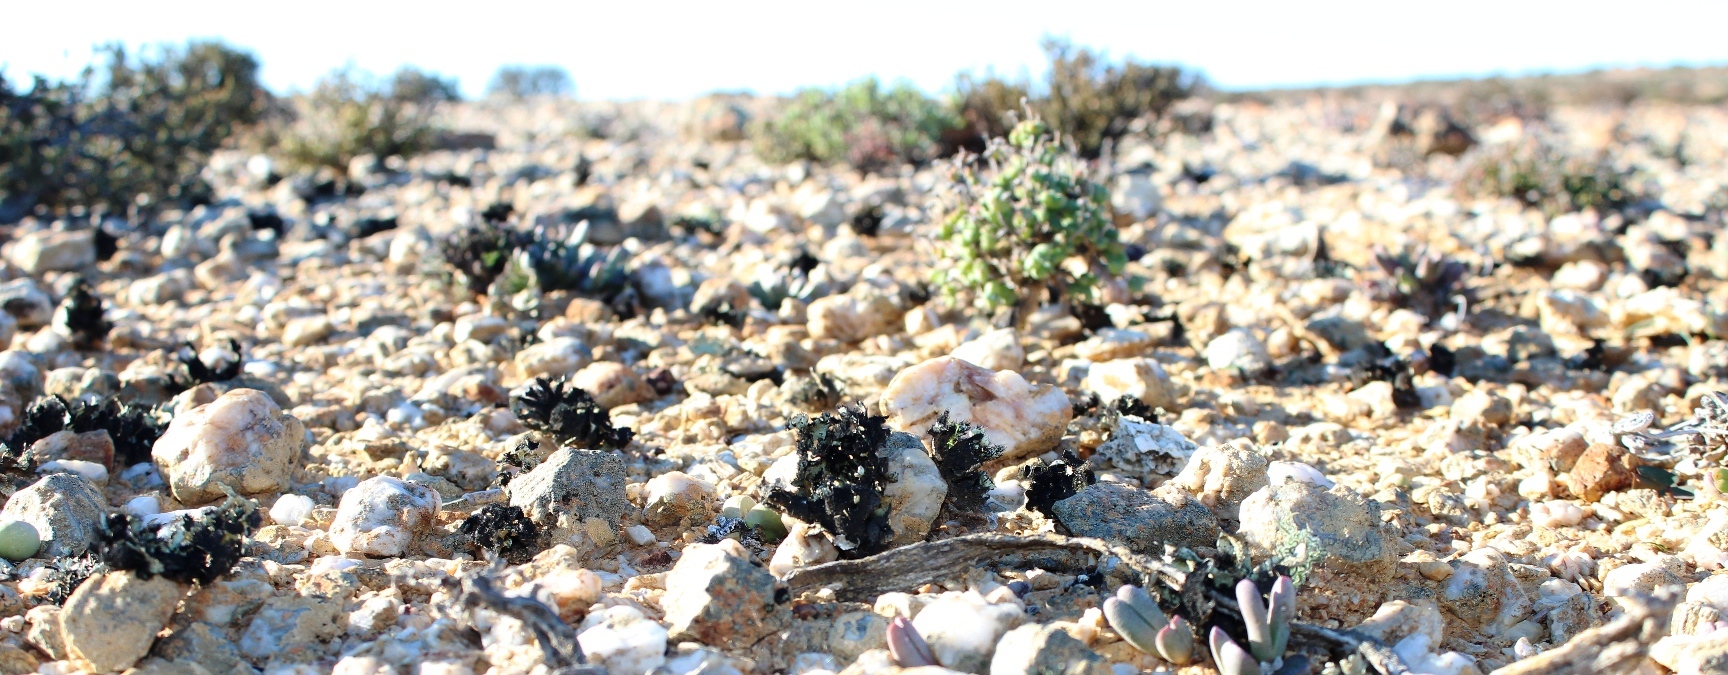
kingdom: Fungi
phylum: Ascomycota
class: Lecanoromycetes
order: Lecanorales
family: Parmeliaceae
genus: Xanthoparmelia
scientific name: Xanthoparmelia hottentotta
